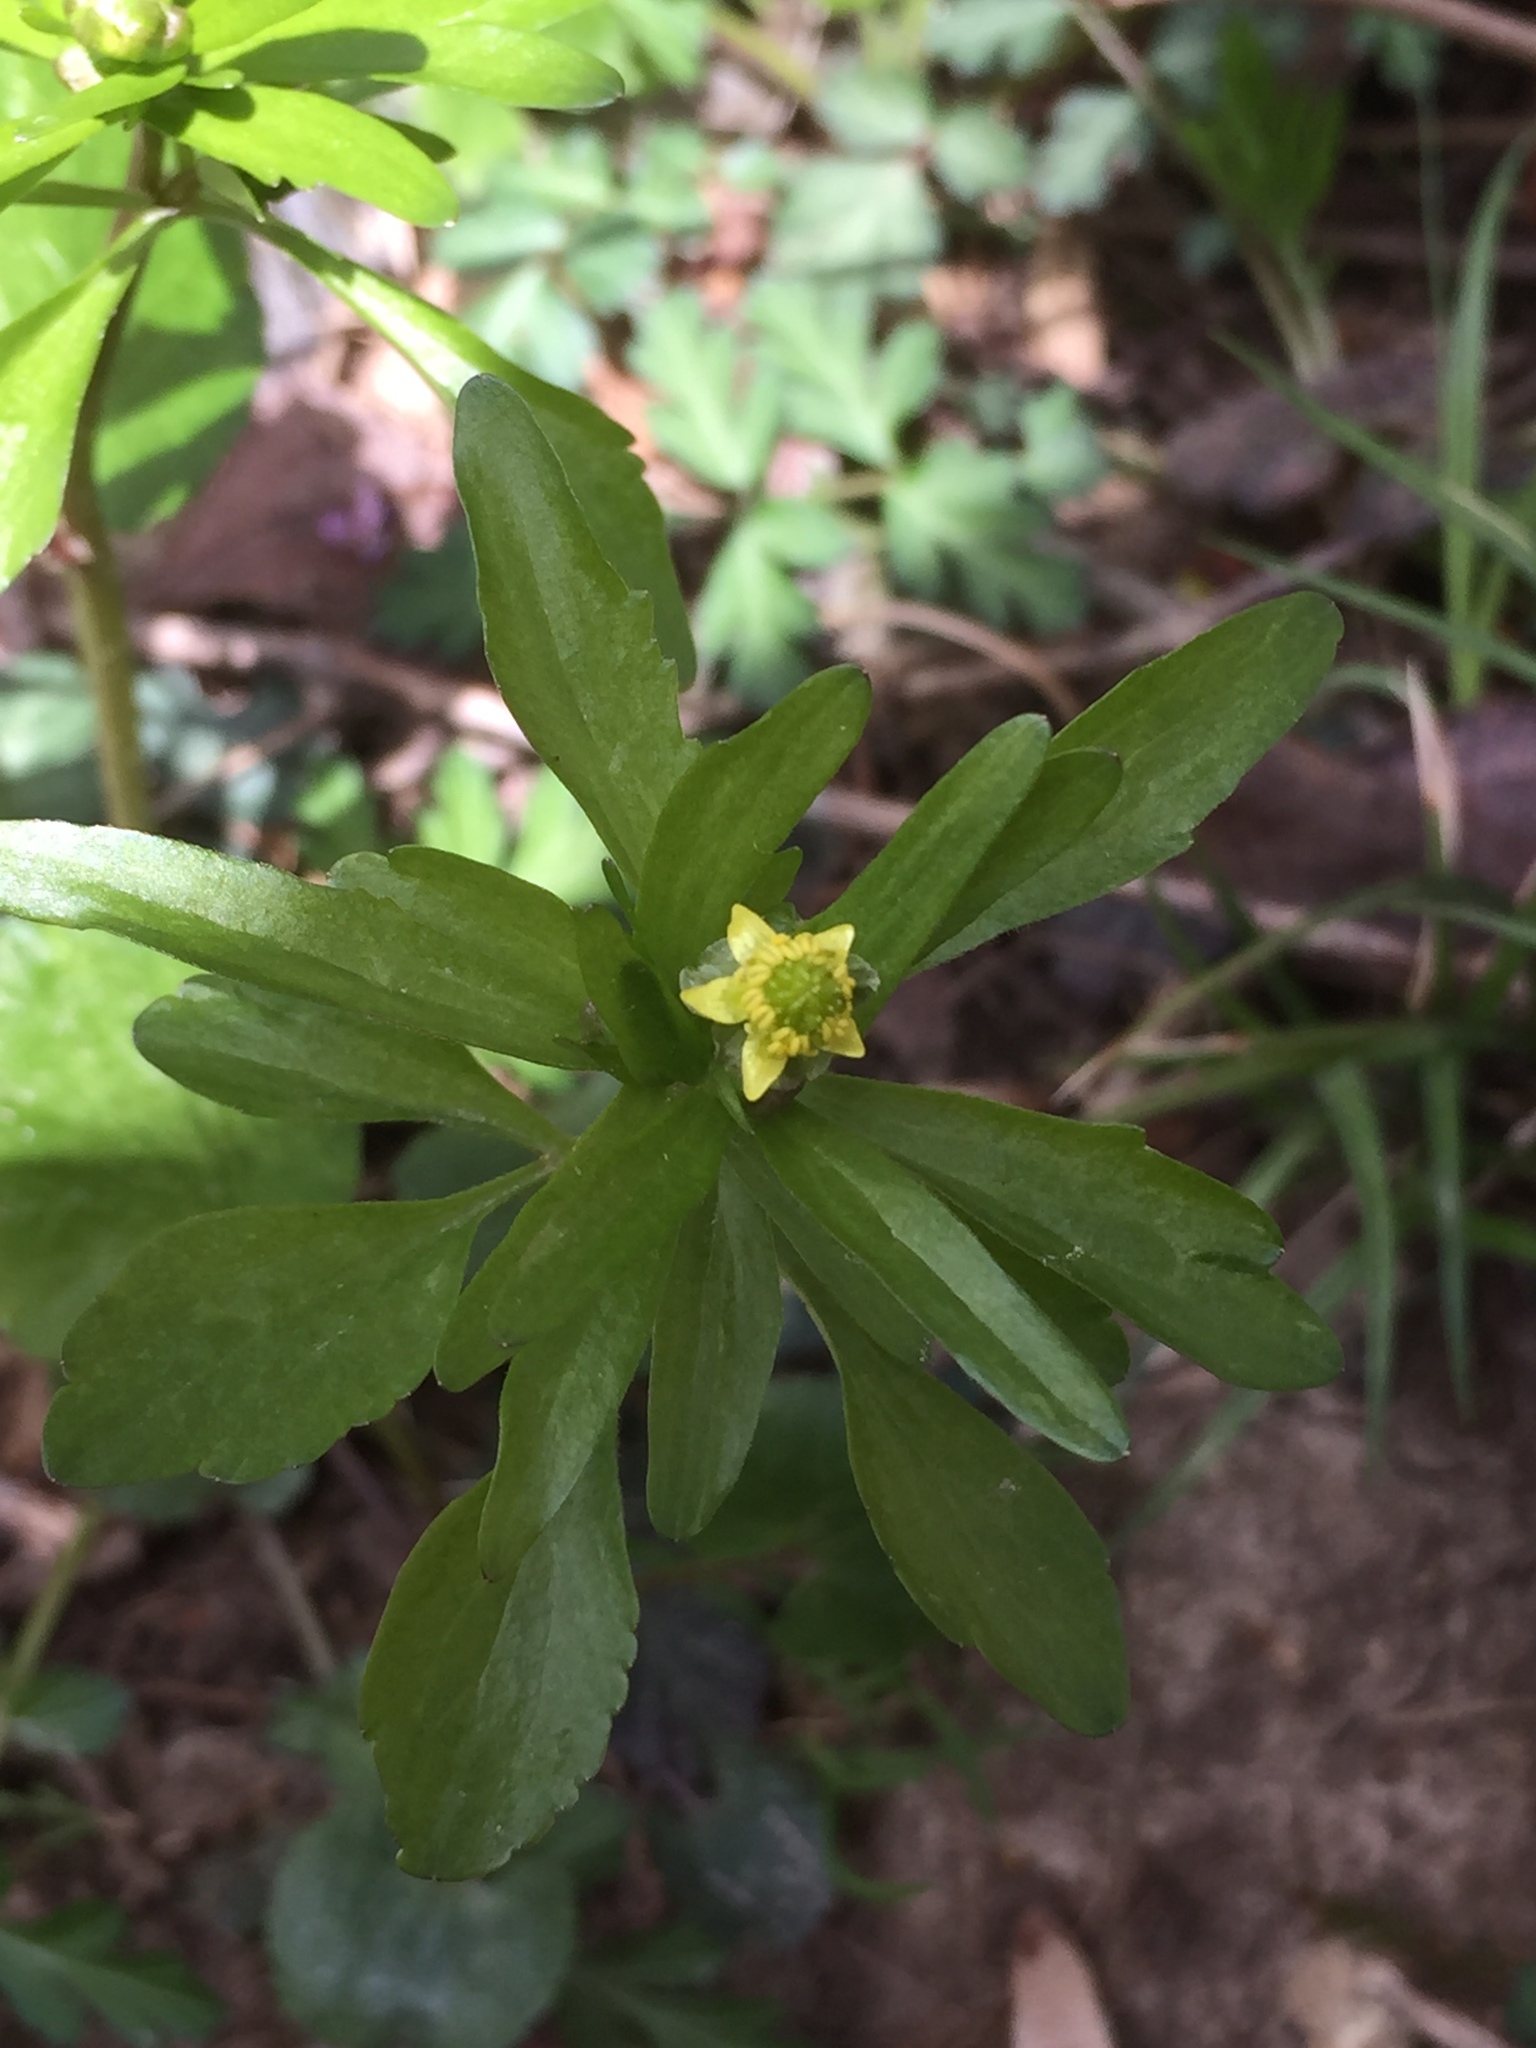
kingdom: Plantae
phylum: Tracheophyta
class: Magnoliopsida
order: Ranunculales
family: Ranunculaceae
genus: Ranunculus
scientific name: Ranunculus abortivus
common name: Early wood buttercup
